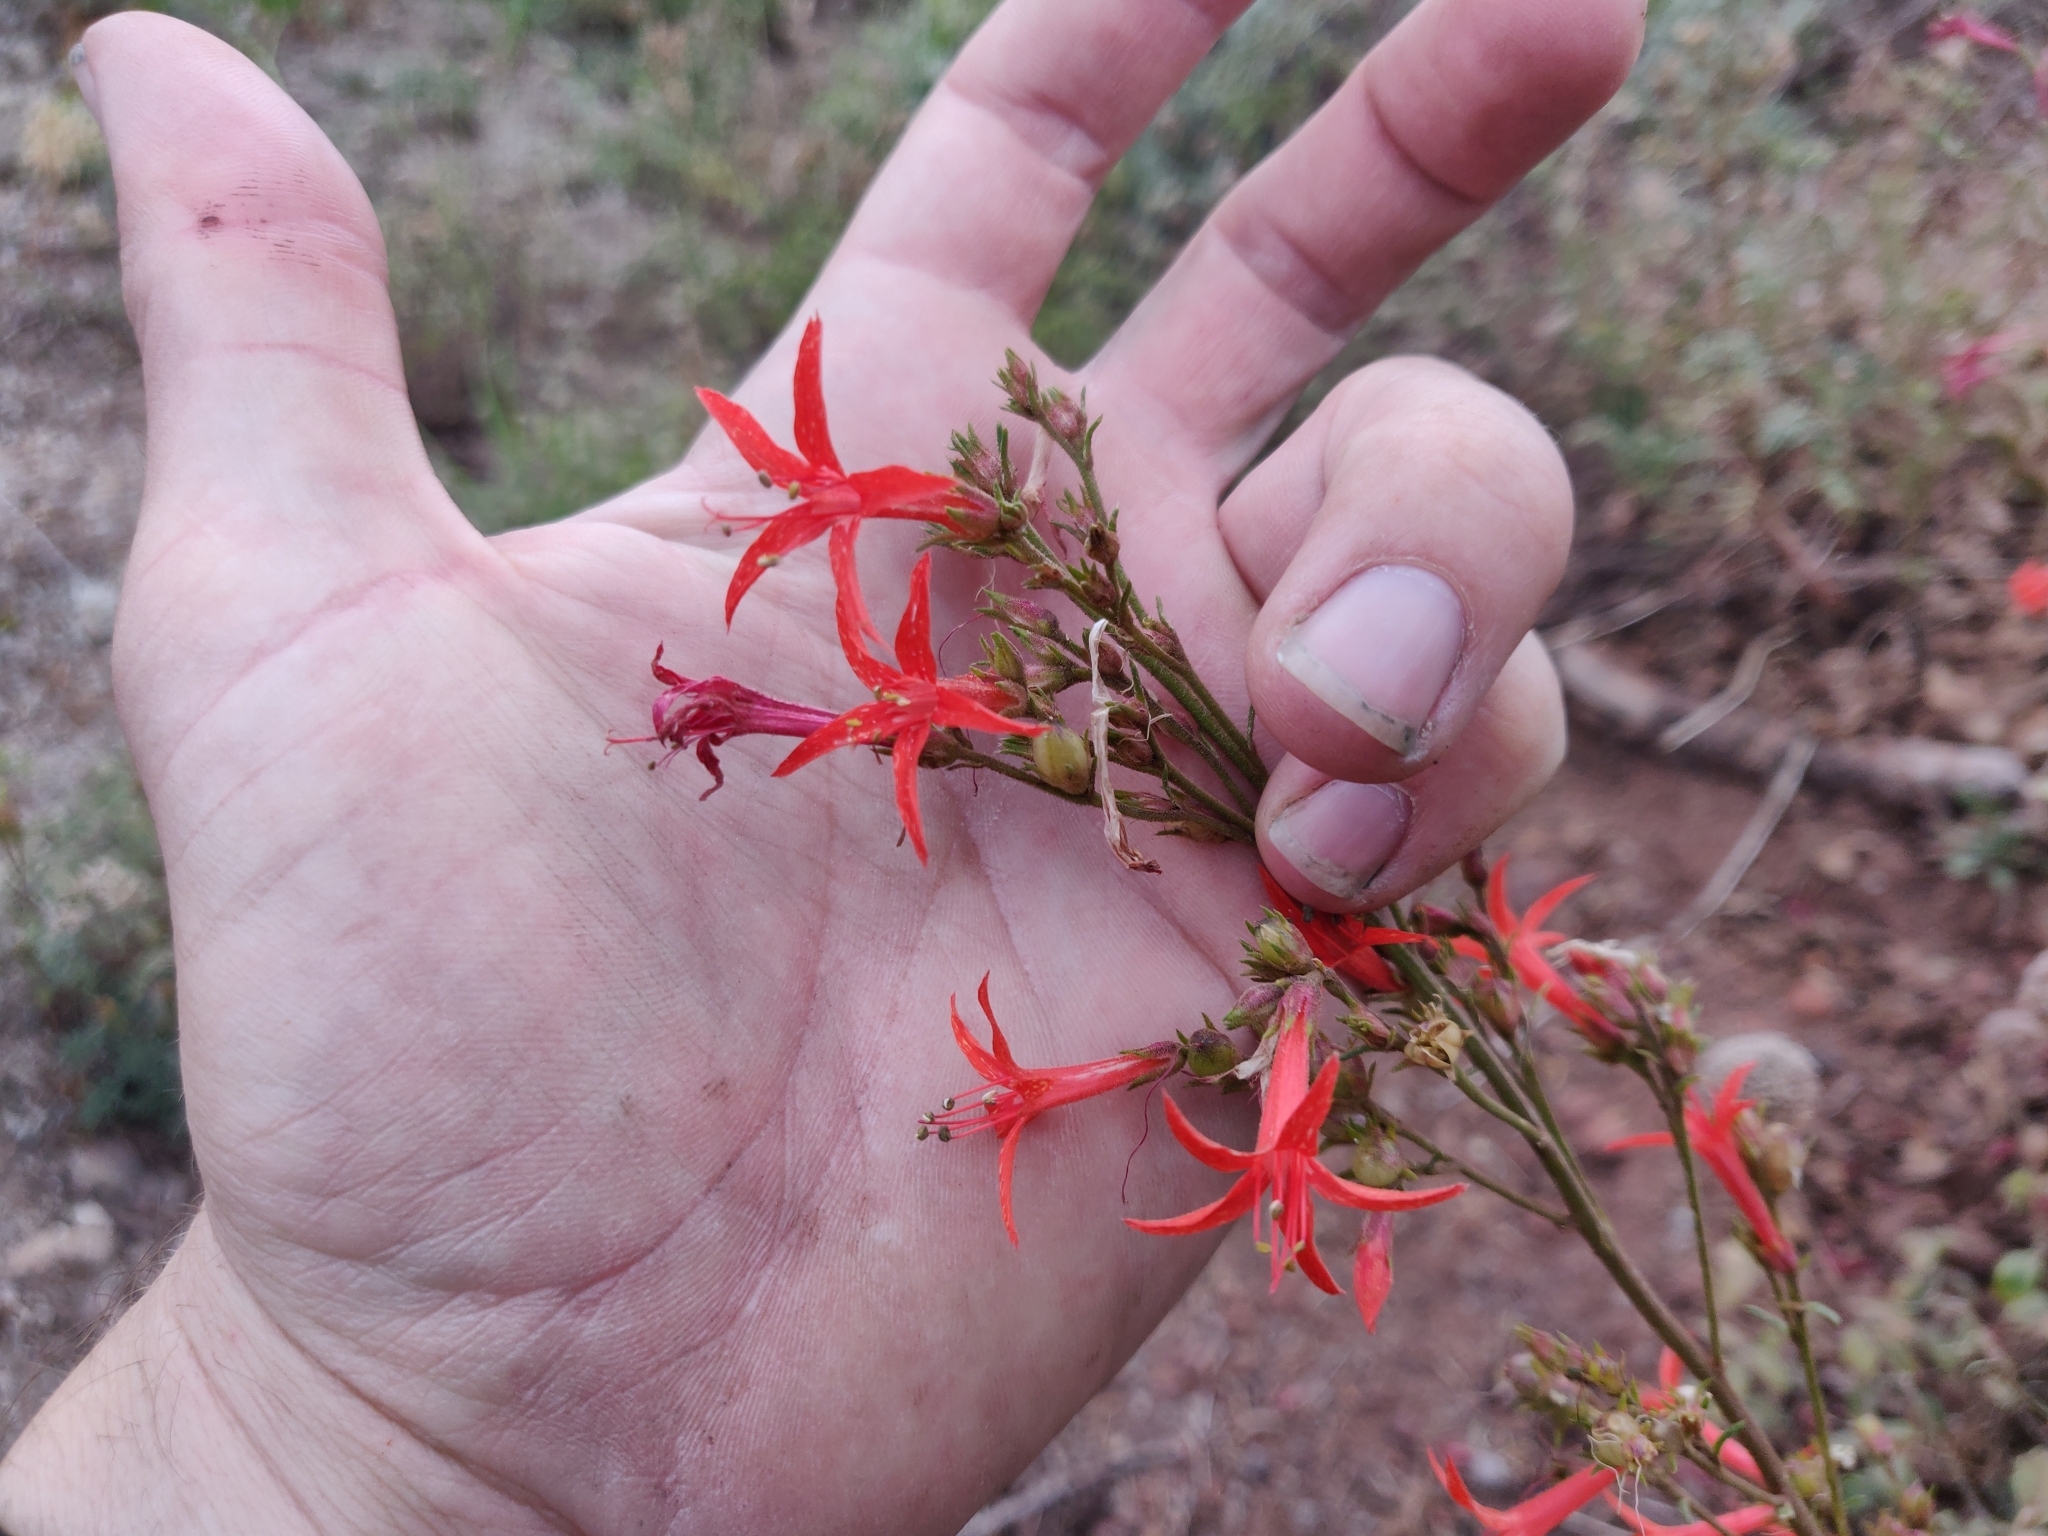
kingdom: Plantae
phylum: Tracheophyta
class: Magnoliopsida
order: Ericales
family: Polemoniaceae
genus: Ipomopsis
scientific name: Ipomopsis aggregata
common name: Scarlet gilia
